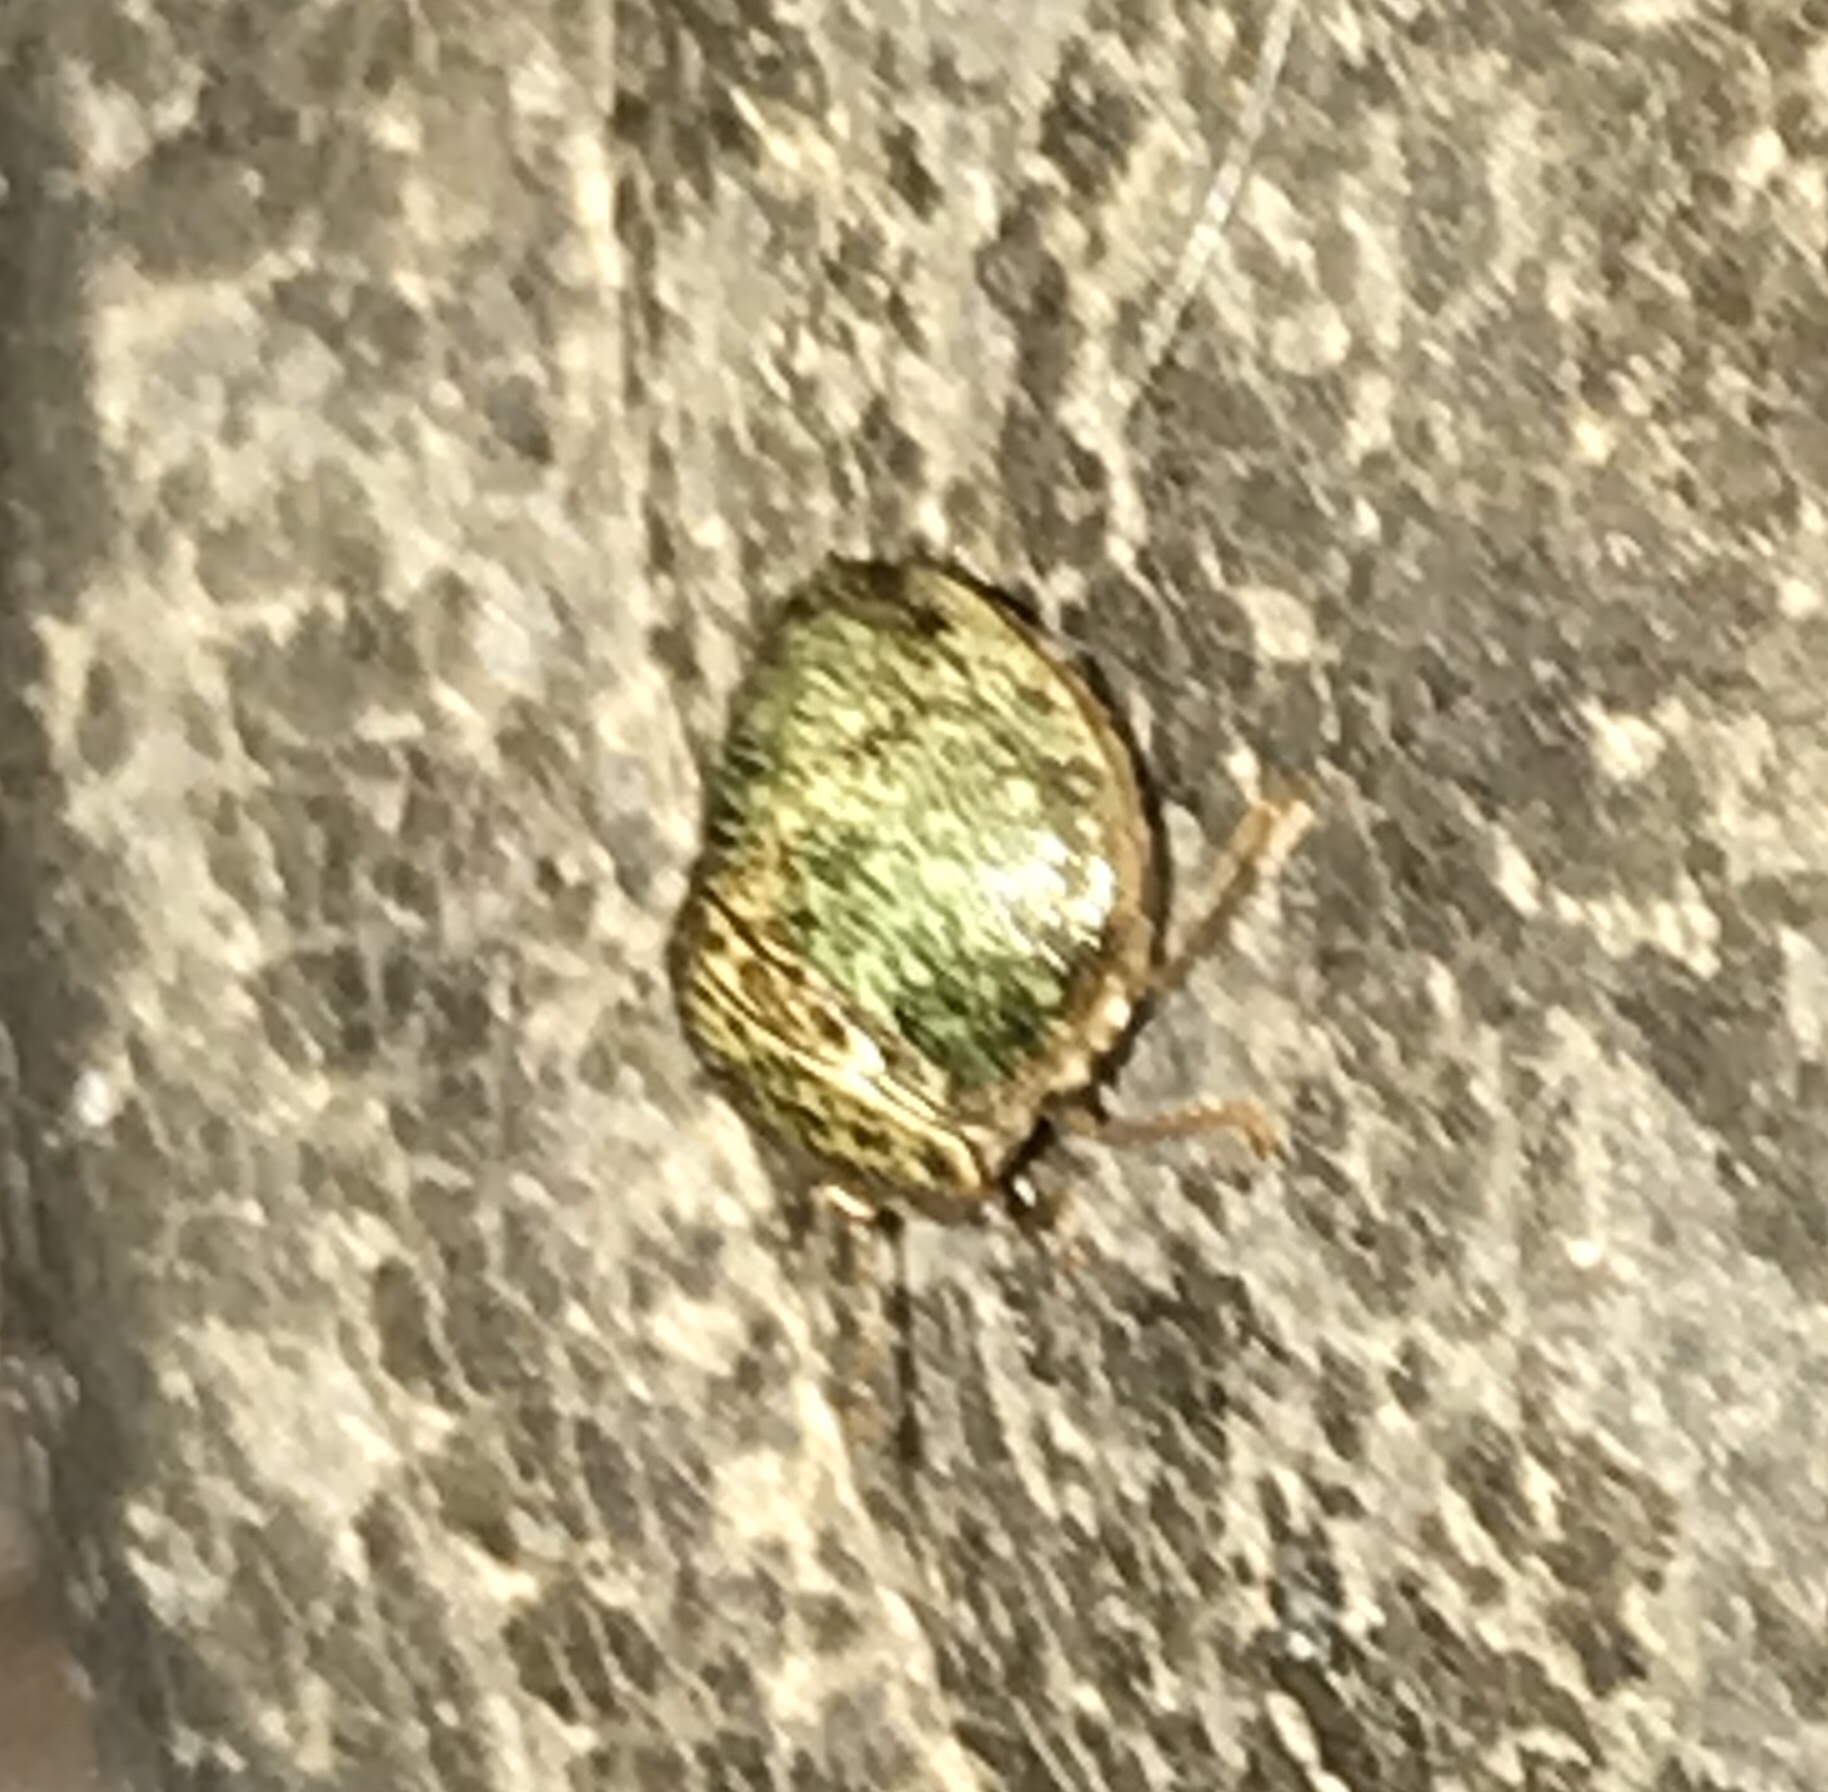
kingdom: Animalia
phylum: Arthropoda
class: Insecta
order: Hemiptera
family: Plataspidae
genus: Megacopta
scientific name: Megacopta cribraria
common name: Bean plataspid
